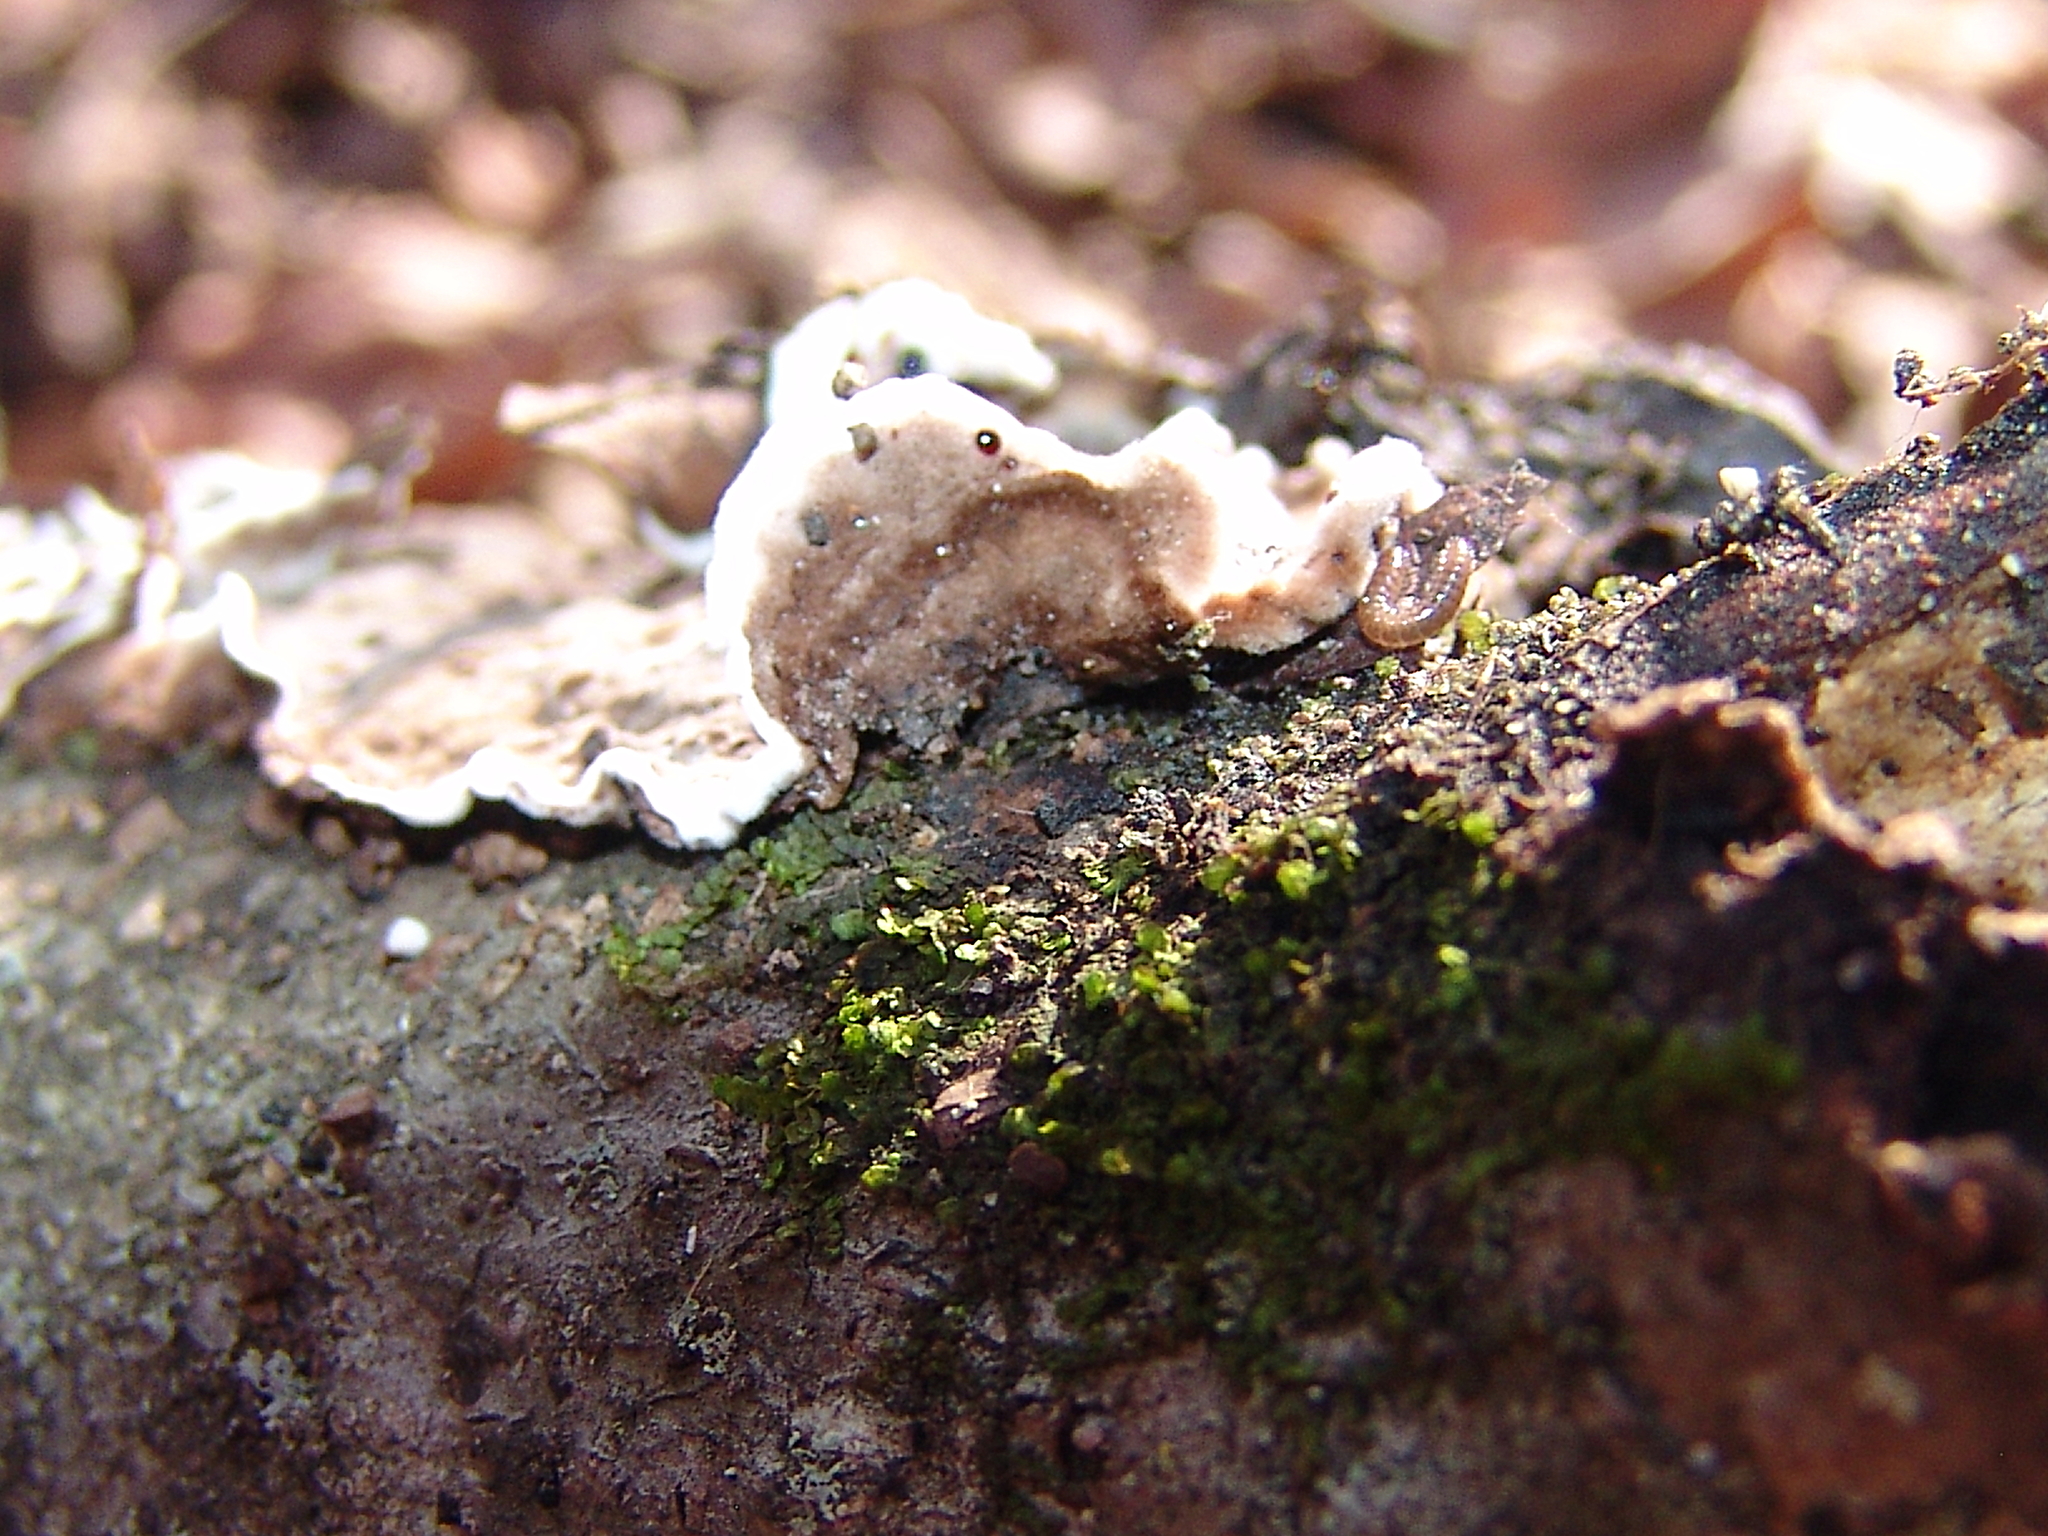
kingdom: Fungi
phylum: Basidiomycota
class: Agaricomycetes
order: Russulales
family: Peniophoraceae
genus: Peniophora
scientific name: Peniophora albobadia
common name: Giraffe spots
